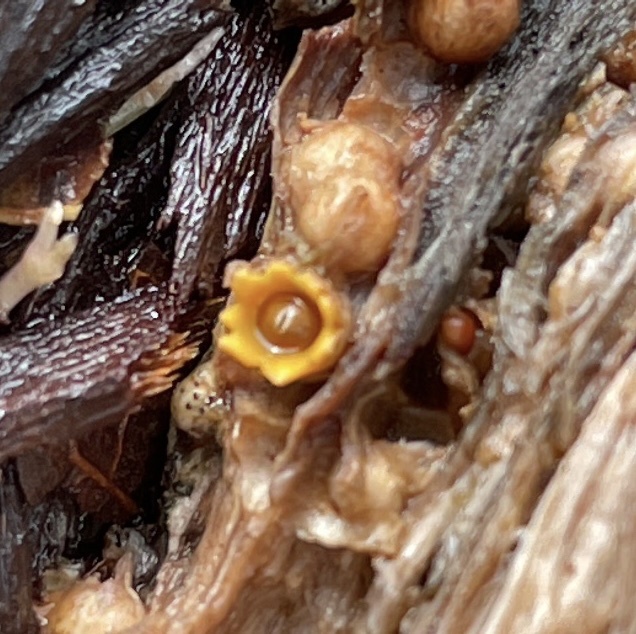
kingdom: Fungi
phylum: Basidiomycota
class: Agaricomycetes
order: Geastrales
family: Geastraceae
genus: Sphaerobolus
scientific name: Sphaerobolus stellatus
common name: Cannon fungus
